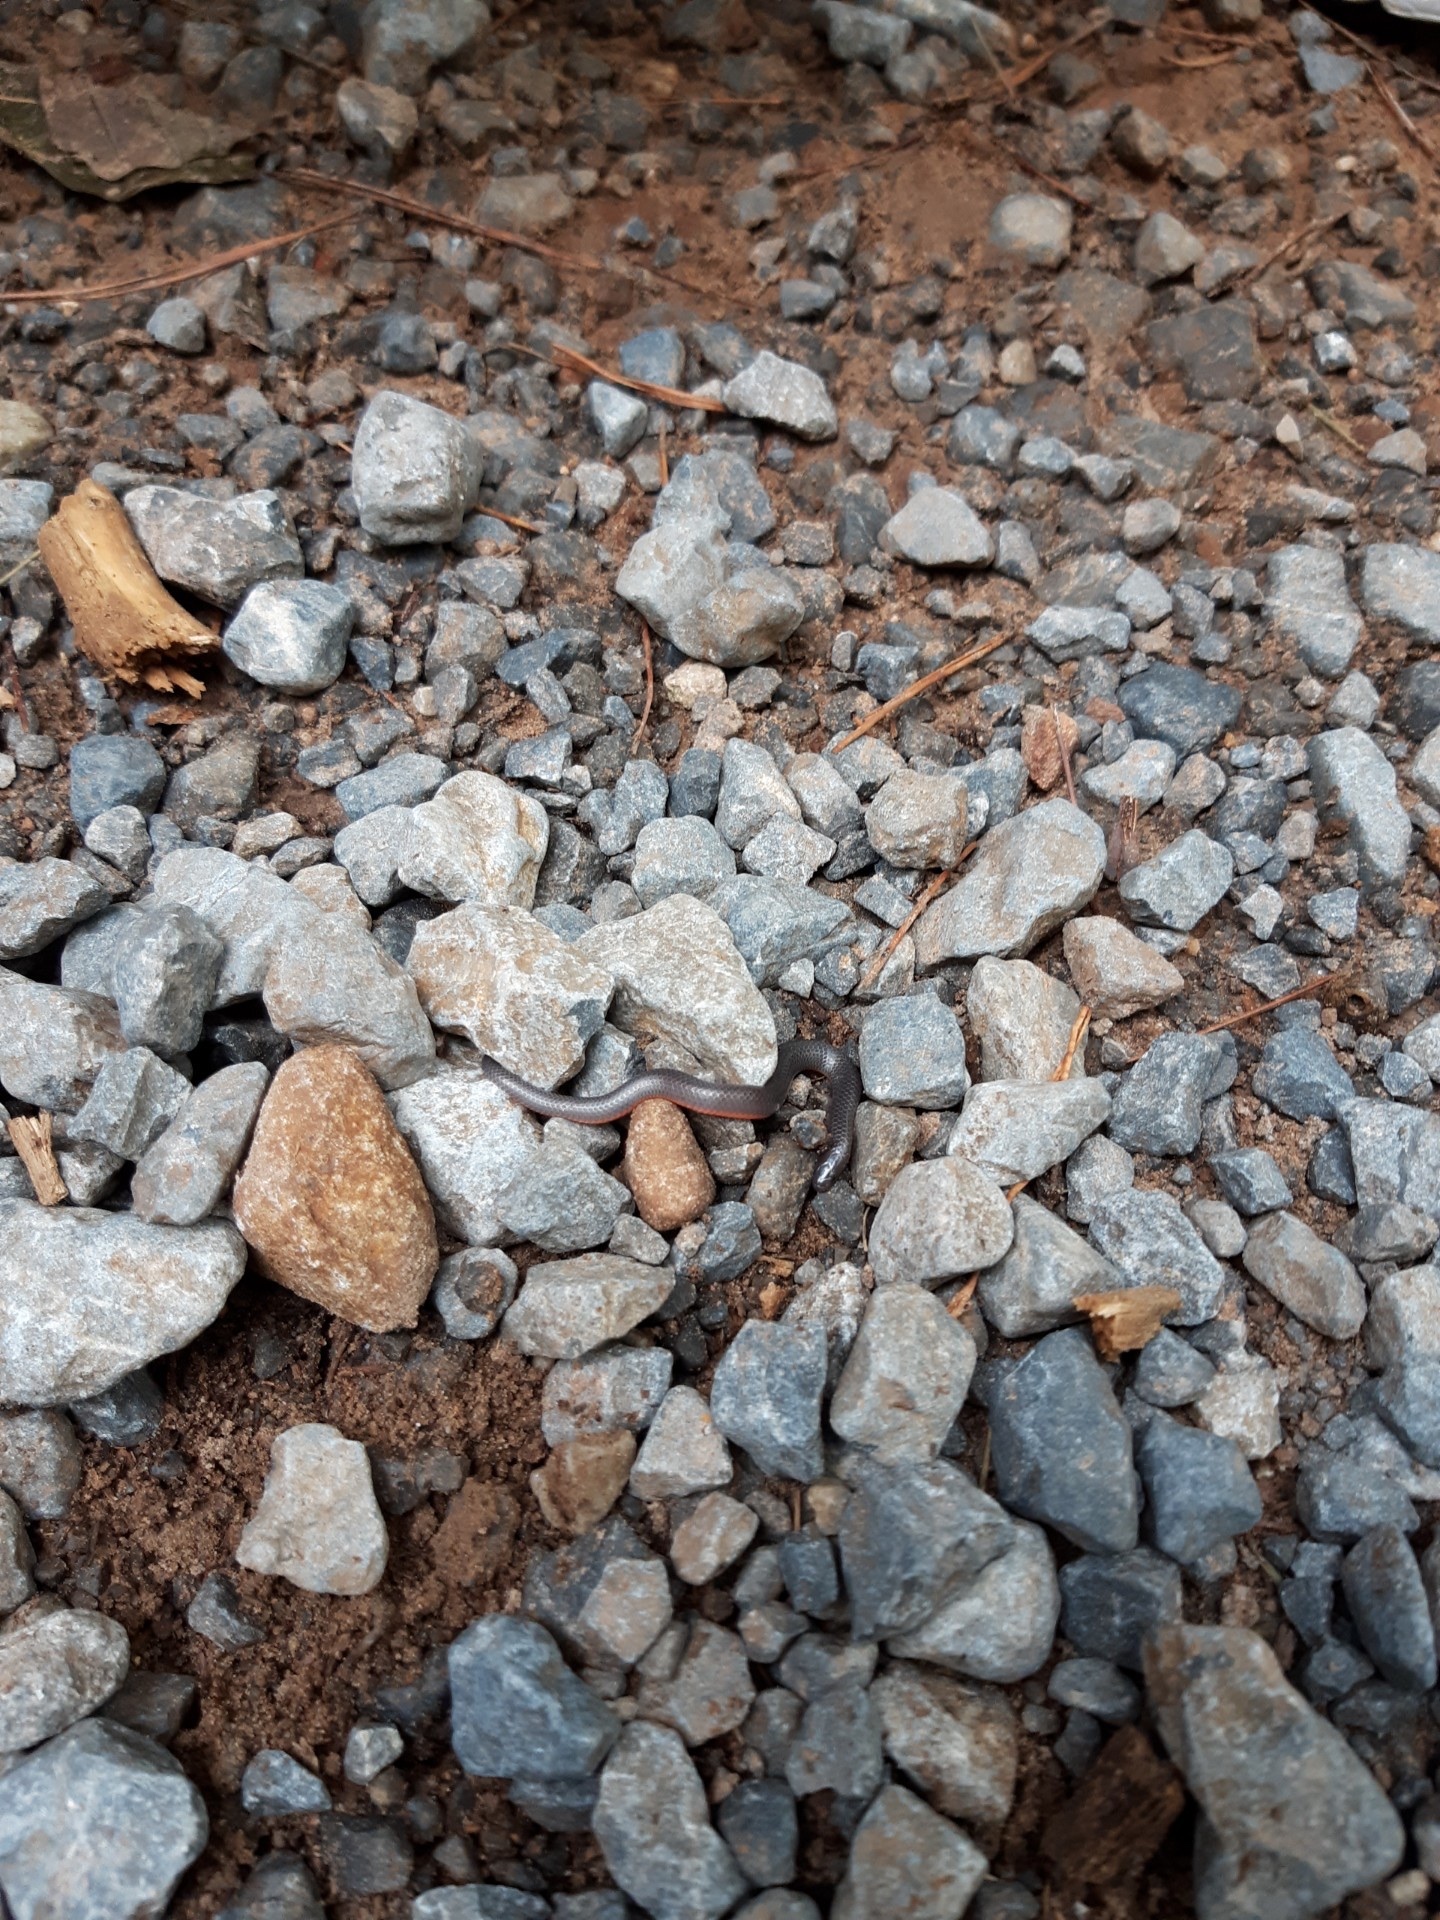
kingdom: Animalia
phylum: Chordata
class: Squamata
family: Colubridae
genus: Carphophis
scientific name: Carphophis amoenus
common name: Eastern worm snake
